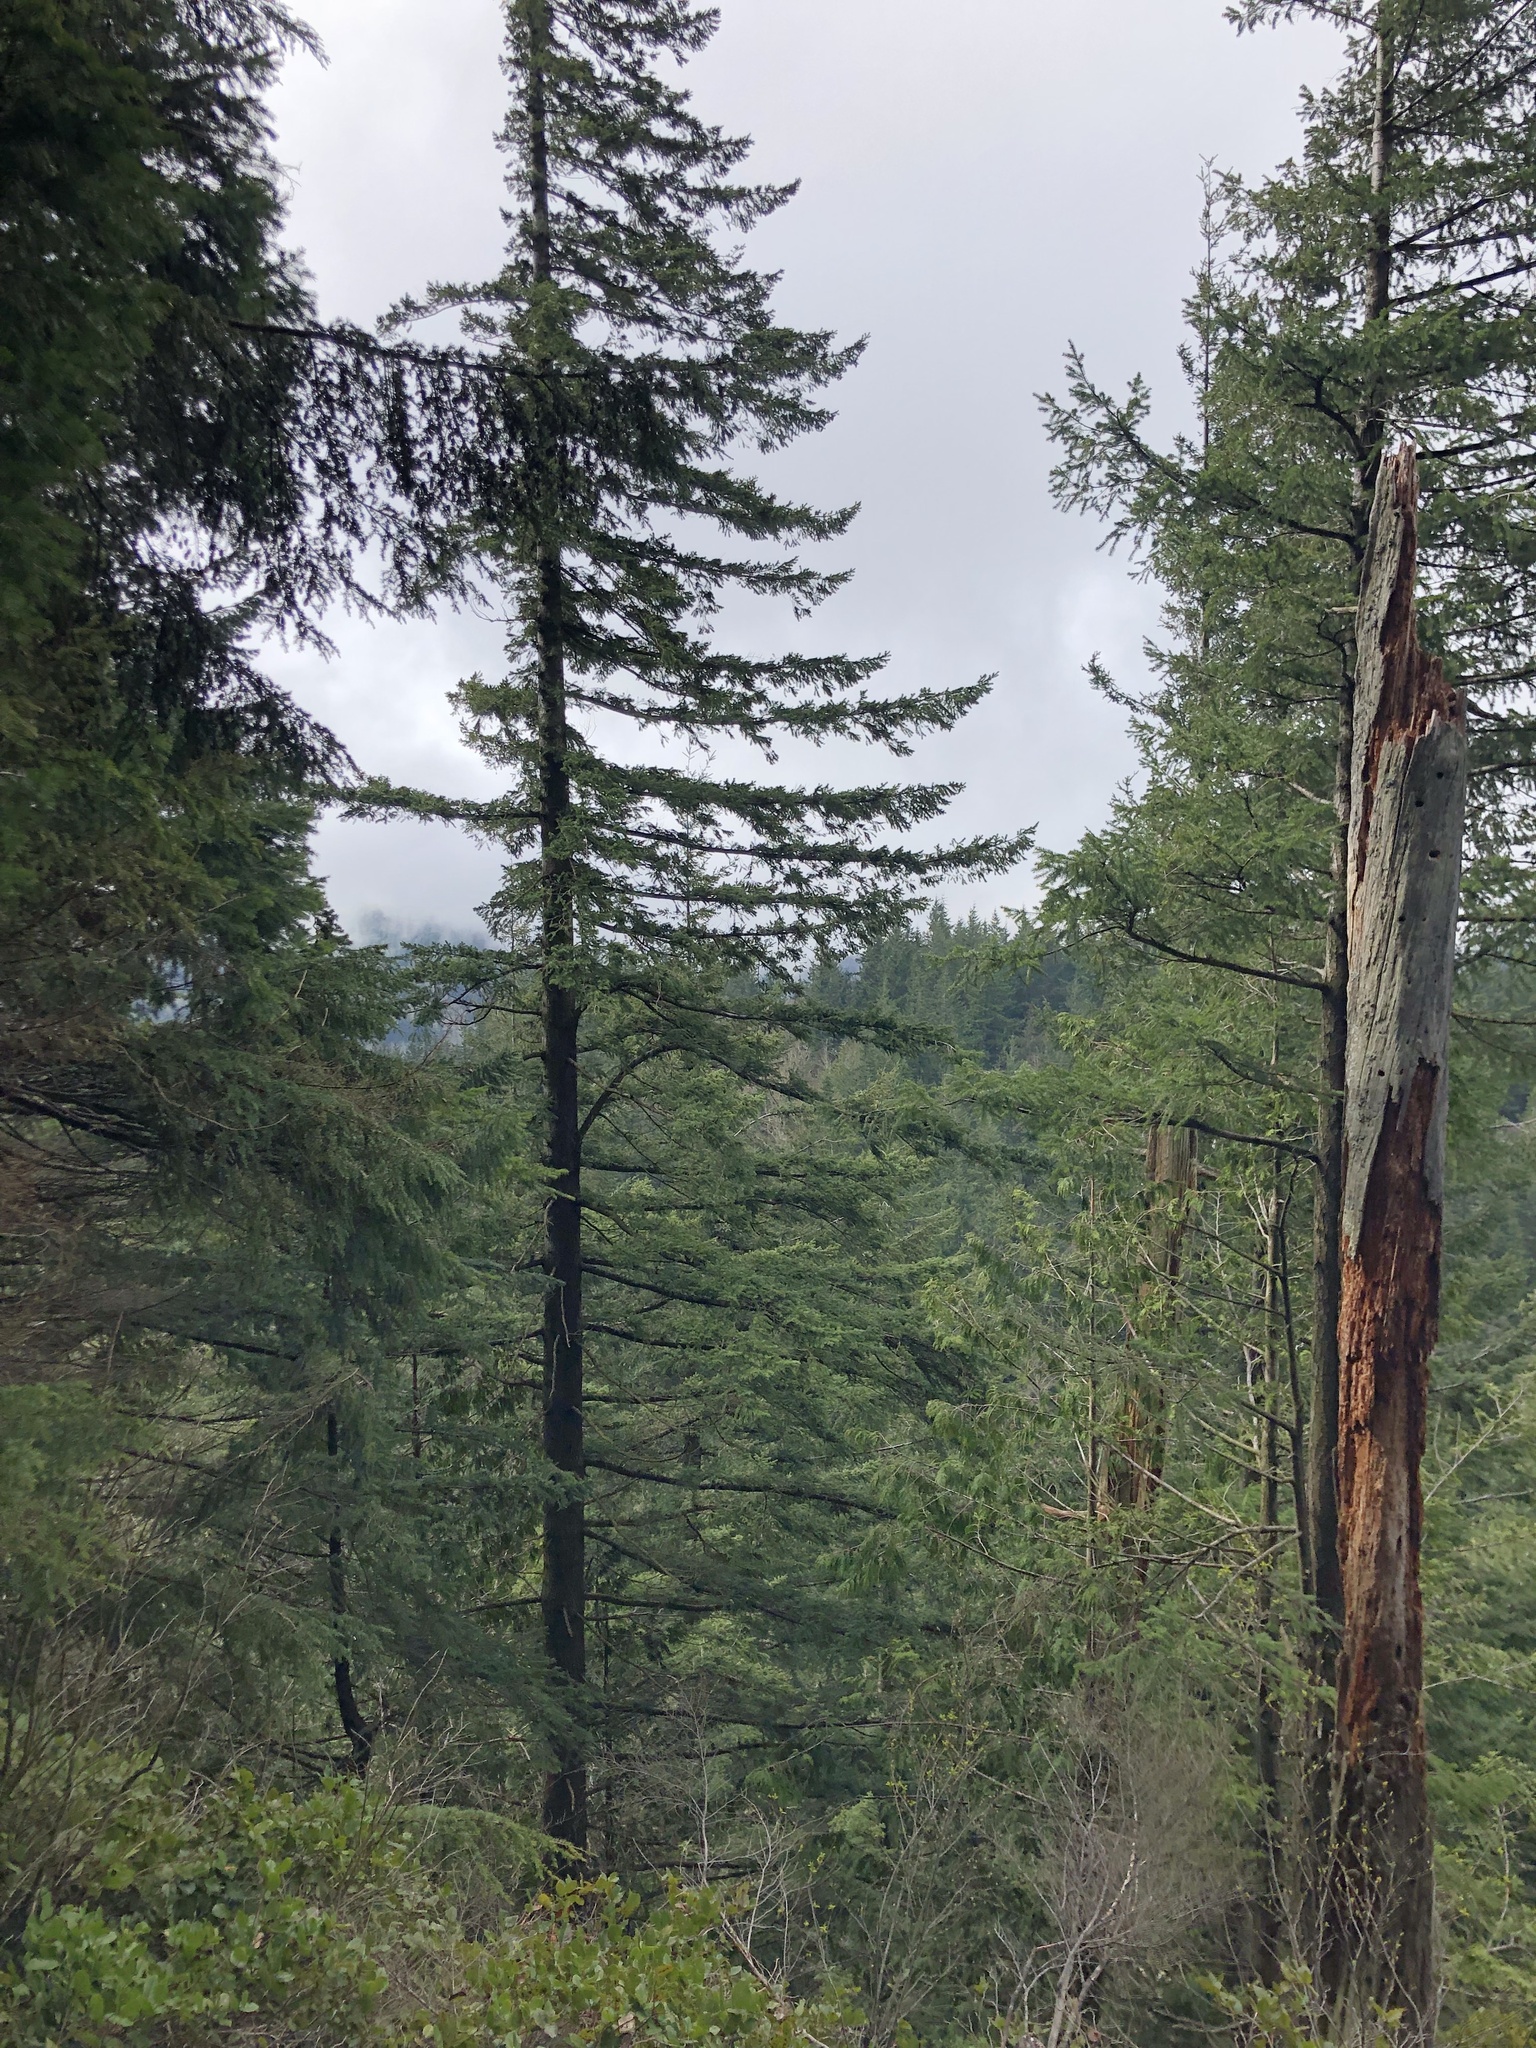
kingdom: Plantae
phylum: Tracheophyta
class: Pinopsida
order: Pinales
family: Pinaceae
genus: Tsuga
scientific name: Tsuga heterophylla
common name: Western hemlock
